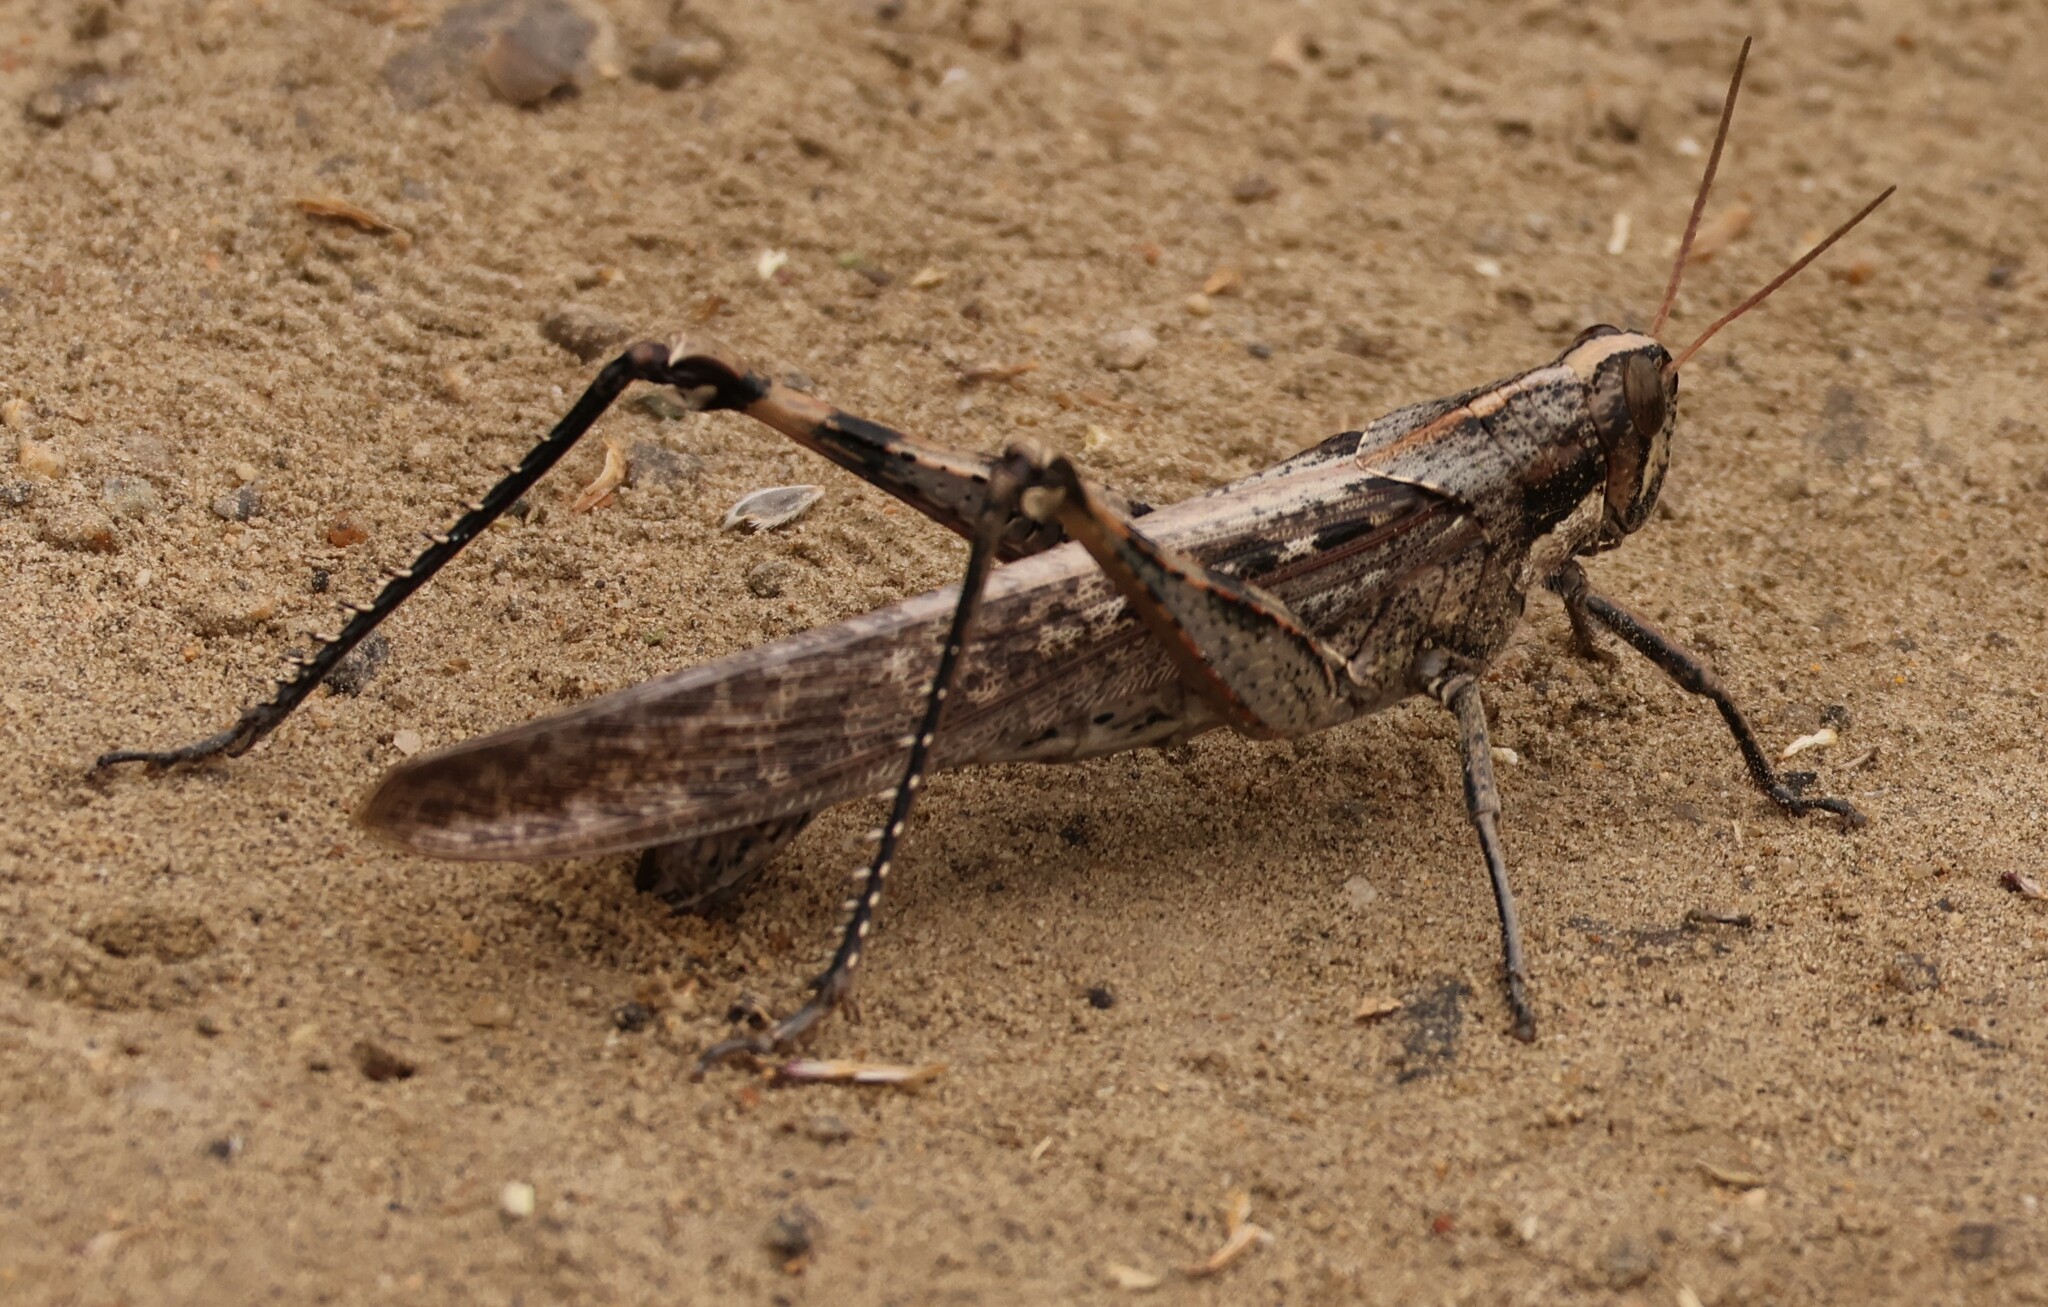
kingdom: Animalia
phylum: Arthropoda
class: Insecta
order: Orthoptera
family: Acrididae
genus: Schistocerca
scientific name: Schistocerca nitens
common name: Vagrant grasshopper
